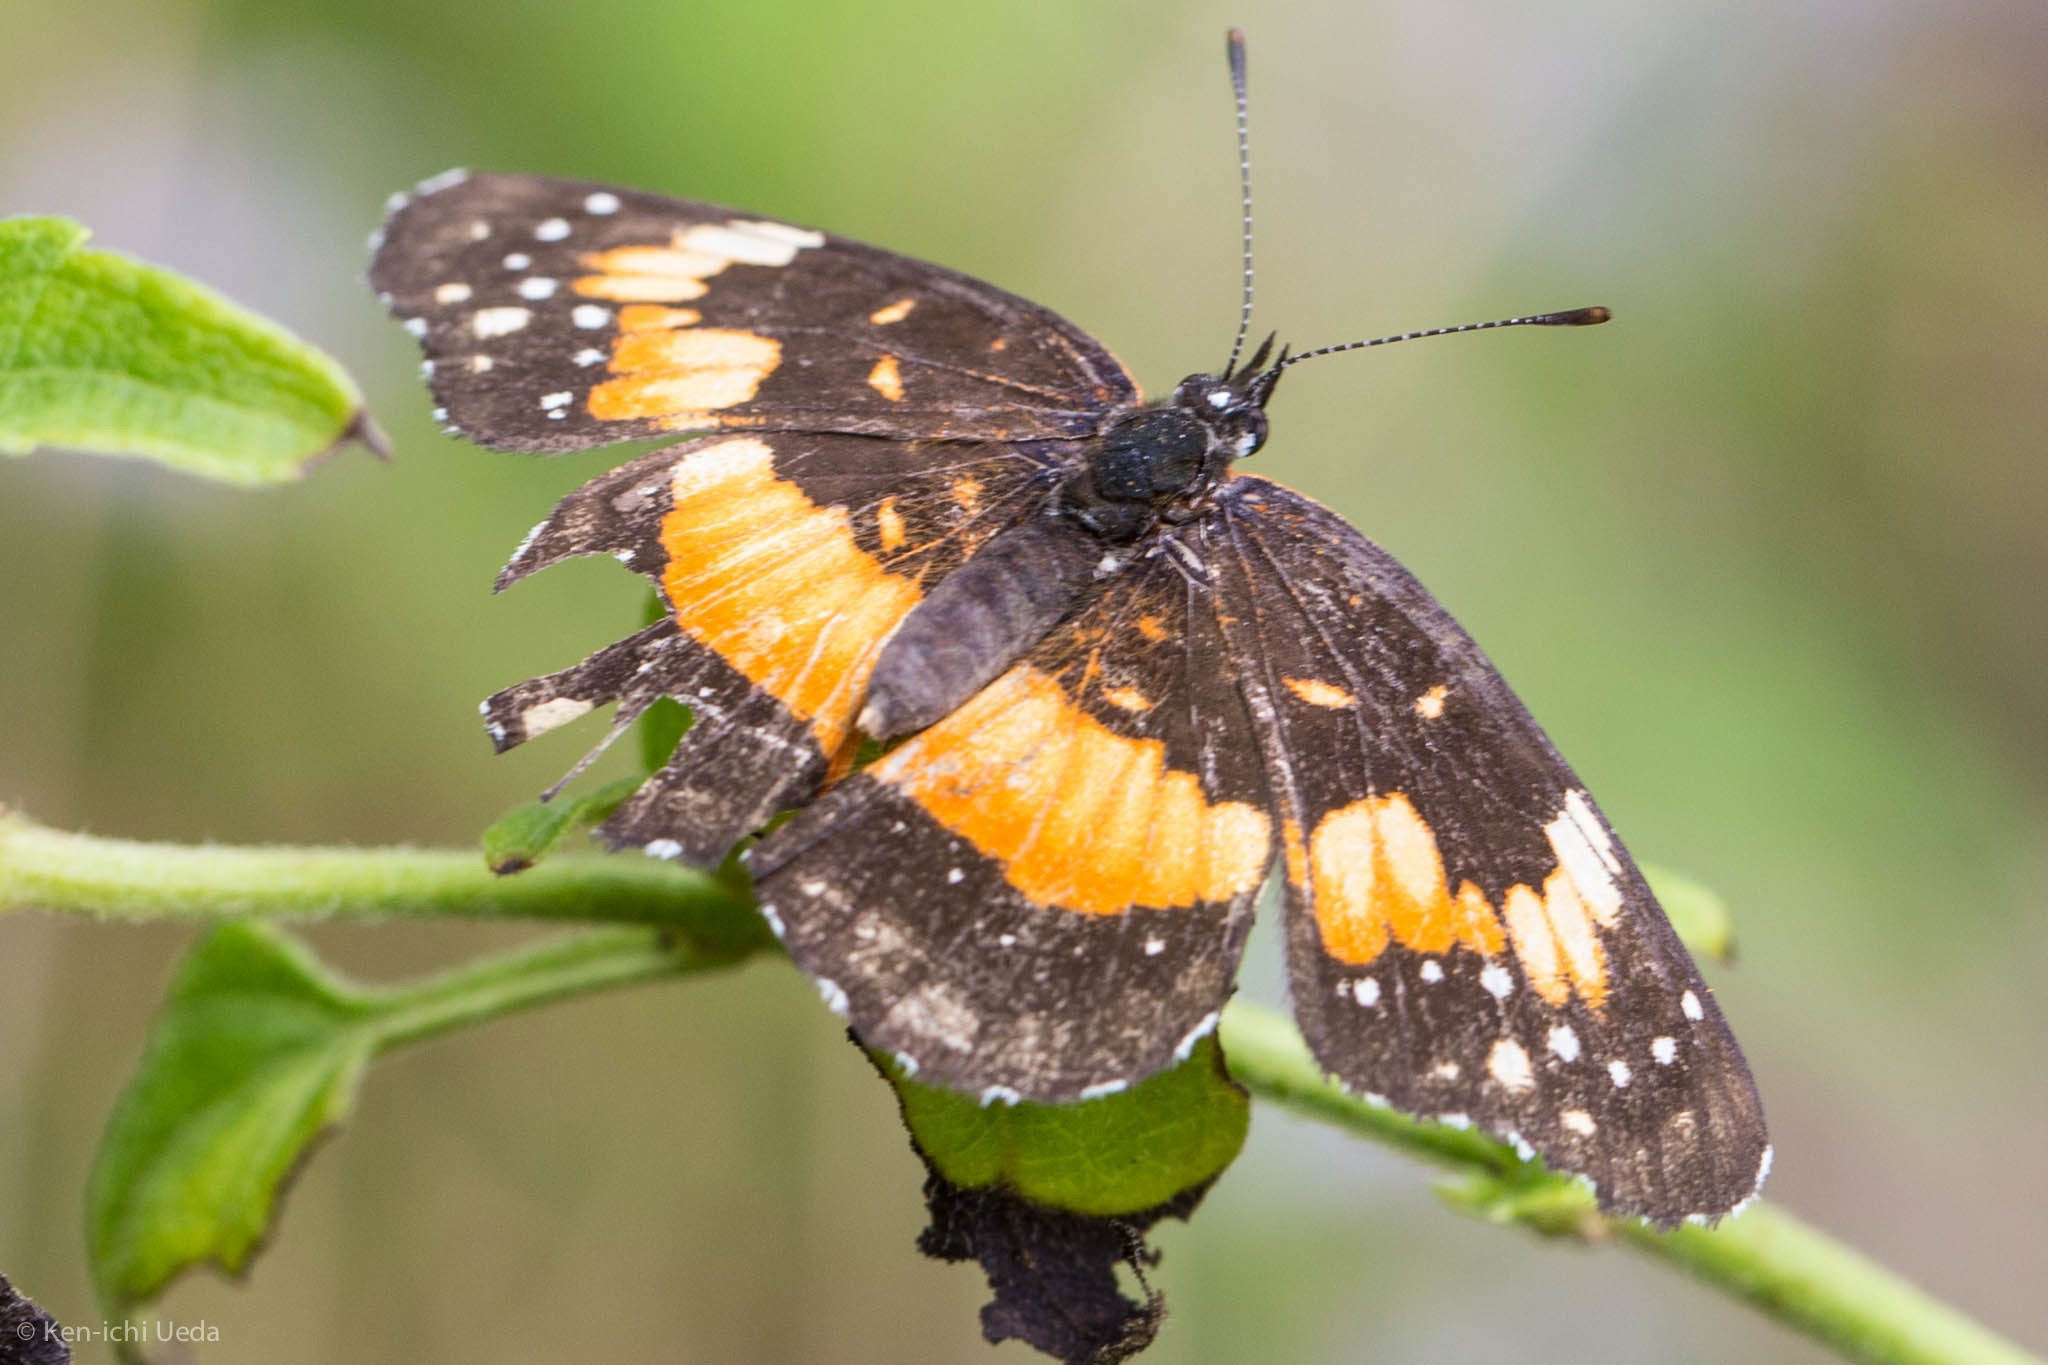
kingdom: Animalia
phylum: Arthropoda
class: Insecta
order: Lepidoptera
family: Nymphalidae
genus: Chlosyne
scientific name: Chlosyne lacinia
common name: Bordered patch
